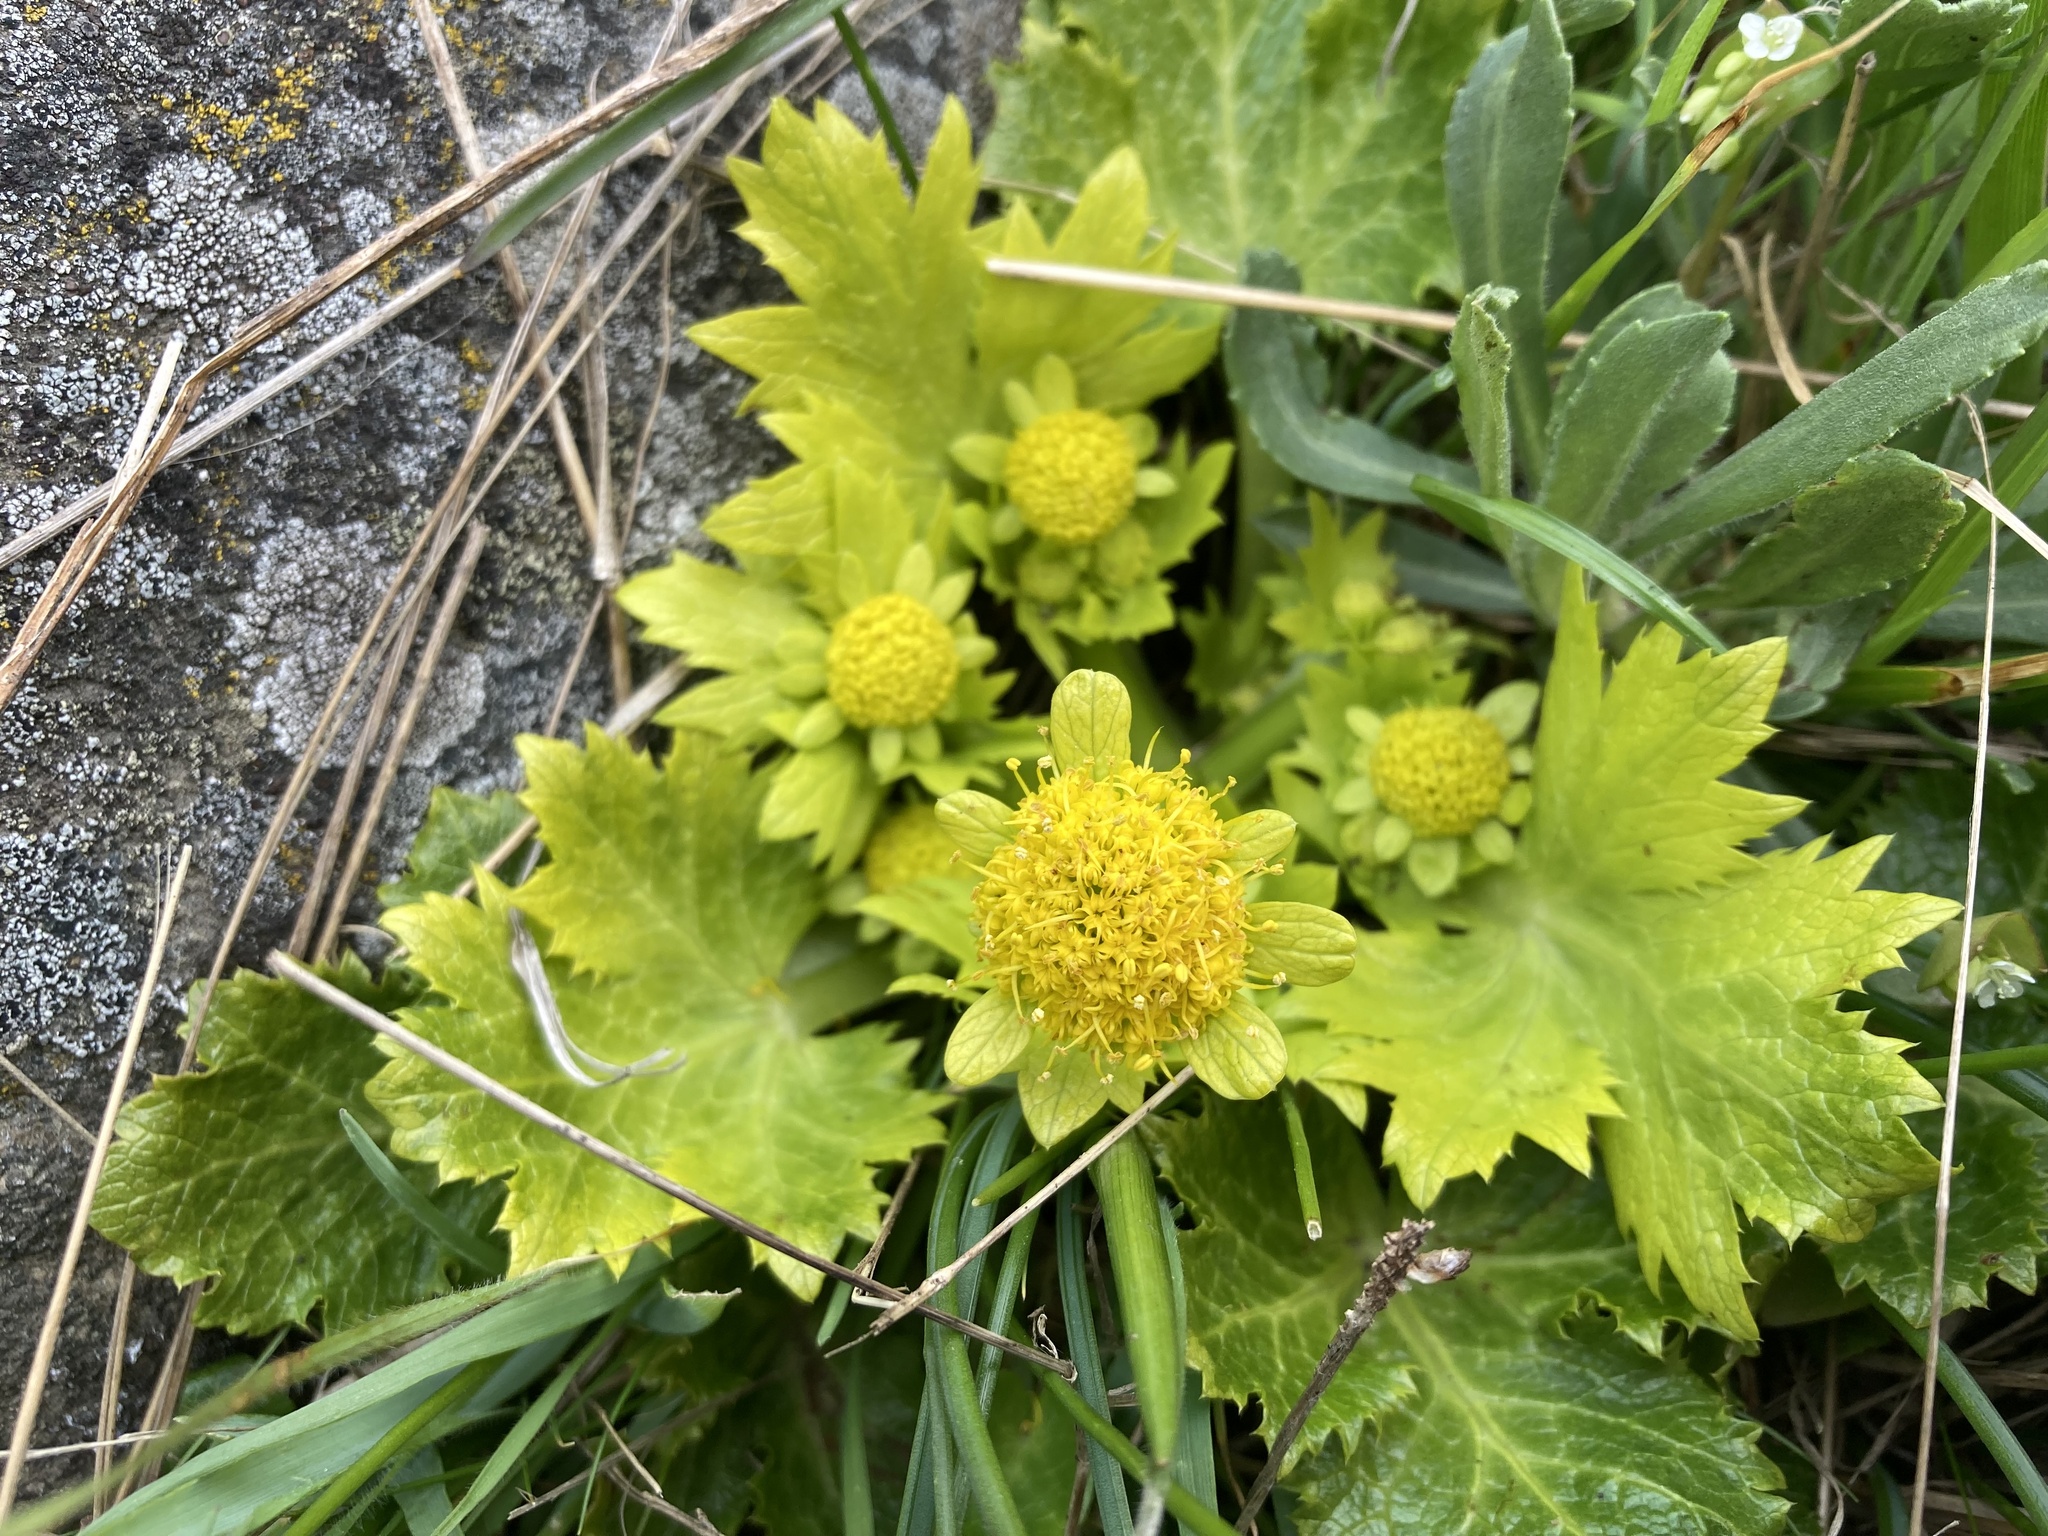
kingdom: Plantae
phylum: Tracheophyta
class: Magnoliopsida
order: Apiales
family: Apiaceae
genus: Sanicula
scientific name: Sanicula arctopoides
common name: Footsteps-of-spring
